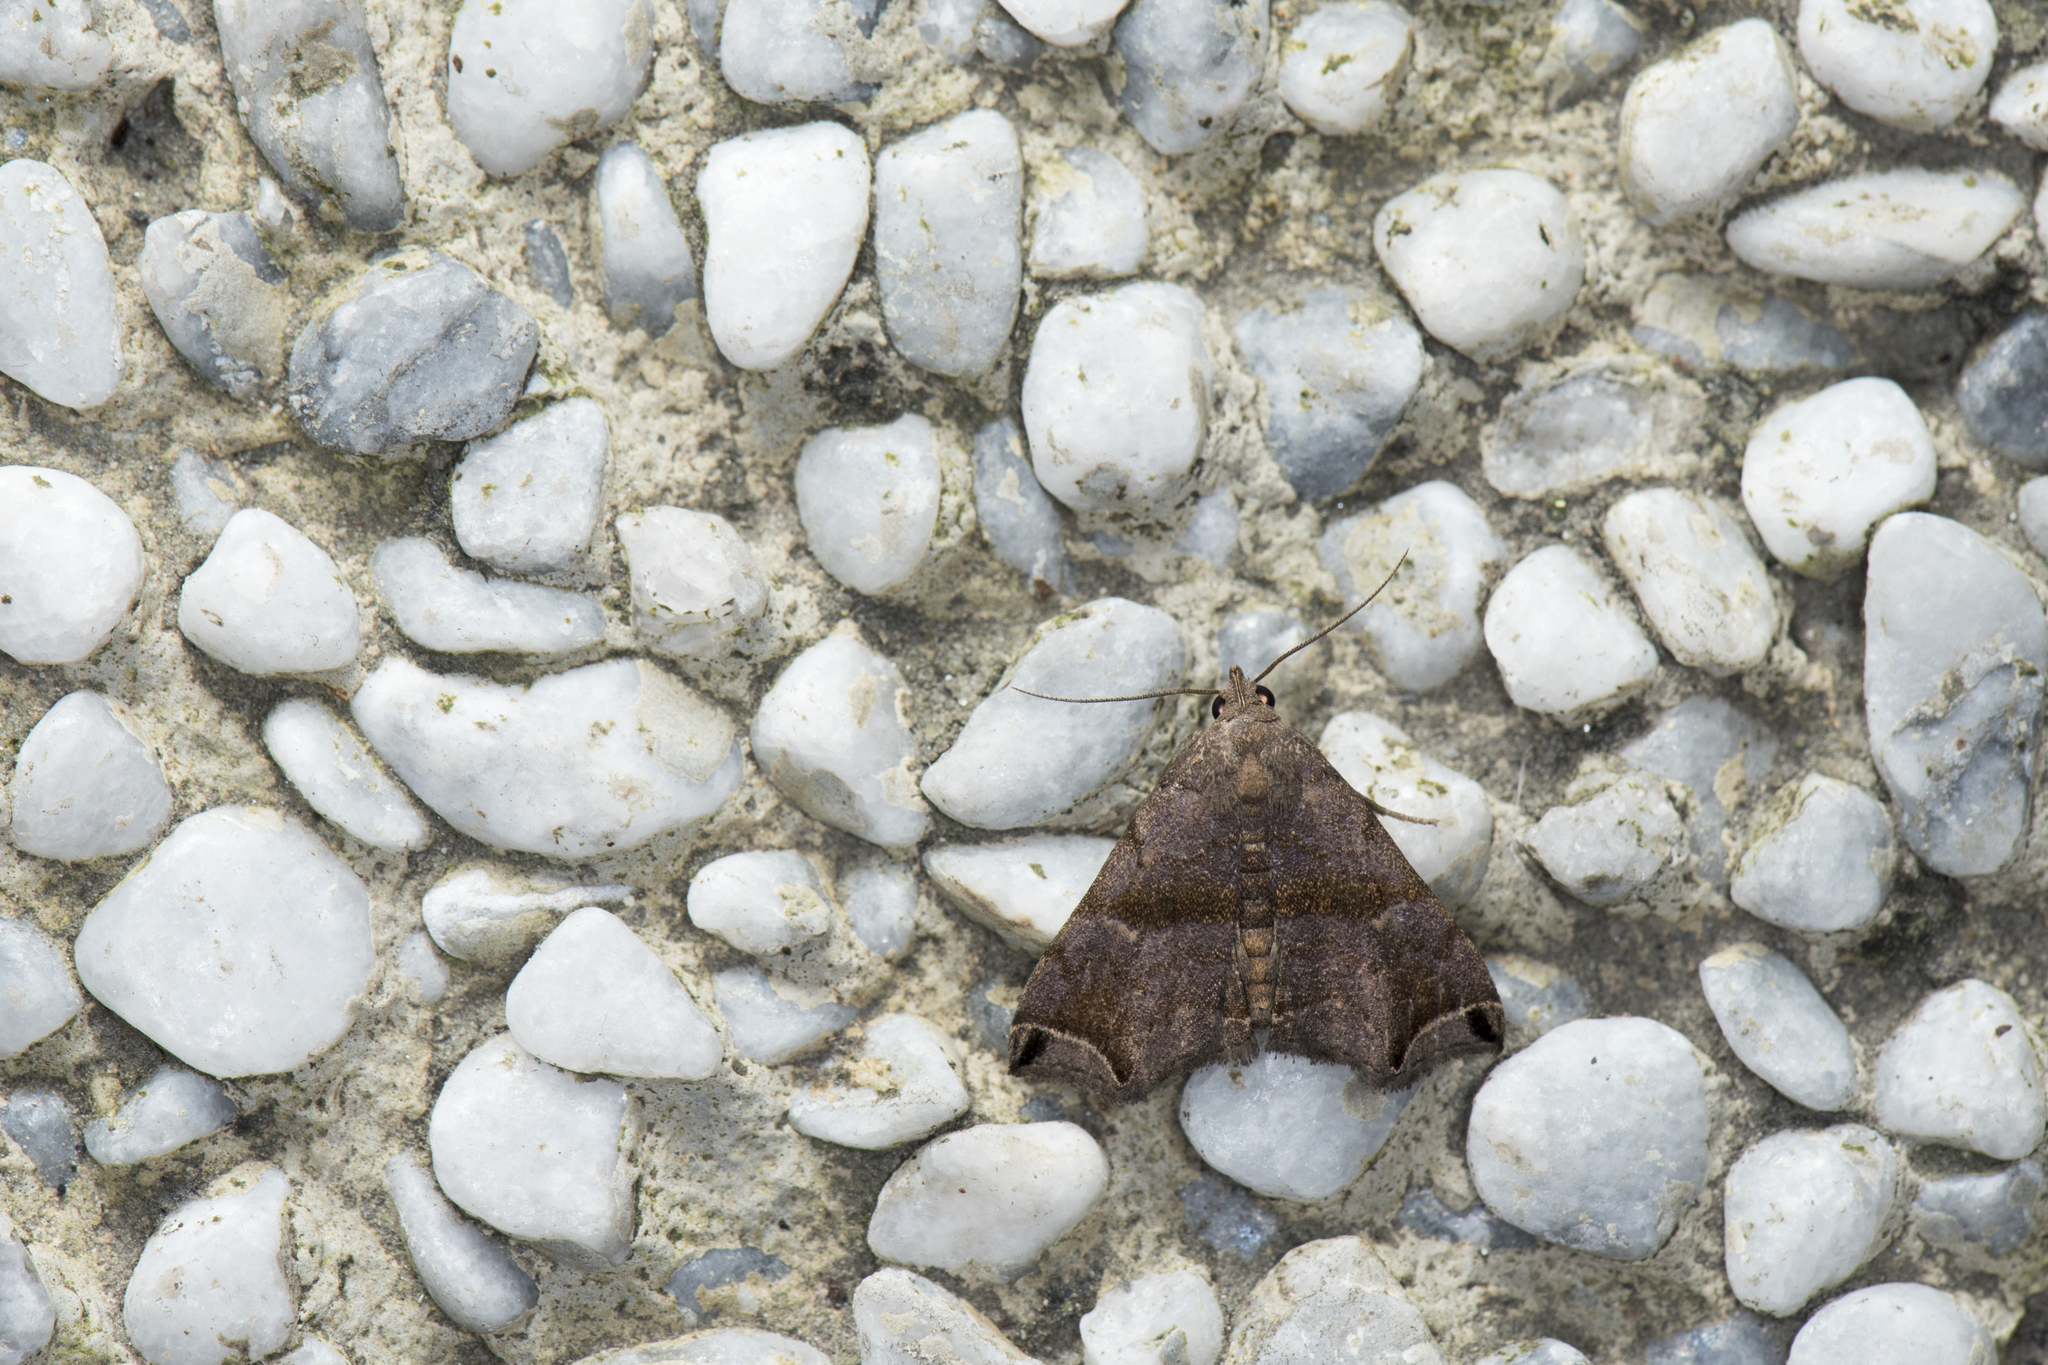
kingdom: Animalia
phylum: Arthropoda
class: Insecta
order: Lepidoptera
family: Erebidae
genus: Polypogon
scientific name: Polypogon biasalis
